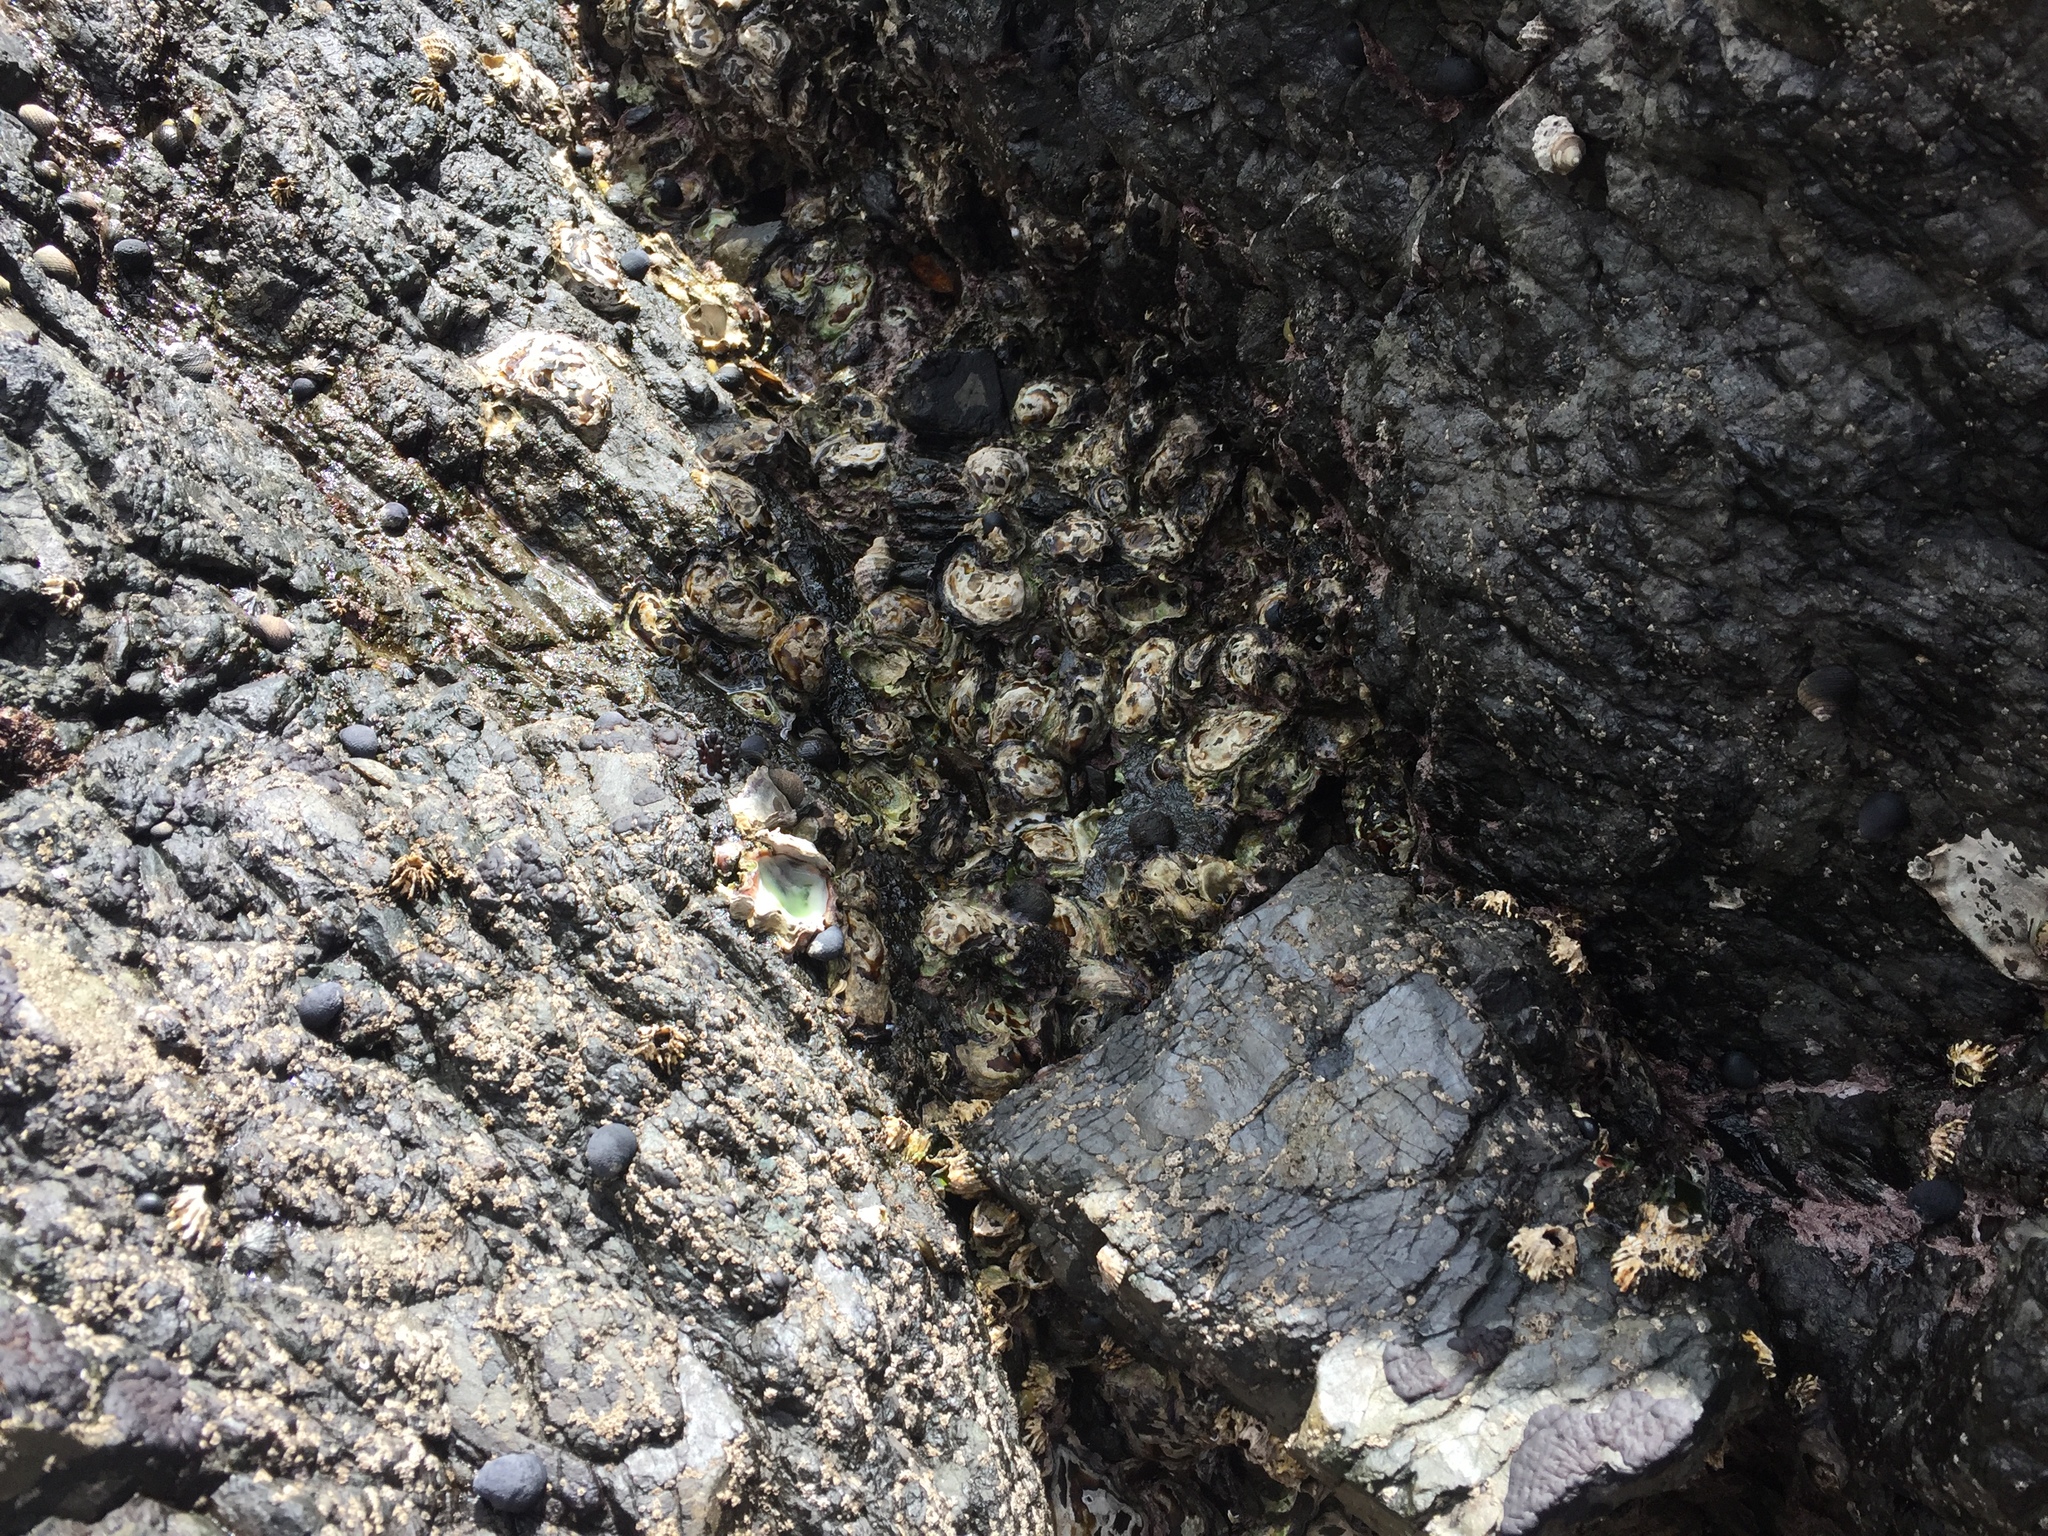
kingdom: Animalia
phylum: Mollusca
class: Bivalvia
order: Ostreida
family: Ostreidae
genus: Saccostrea
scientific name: Saccostrea glomerata
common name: Sydney cupped oyster
